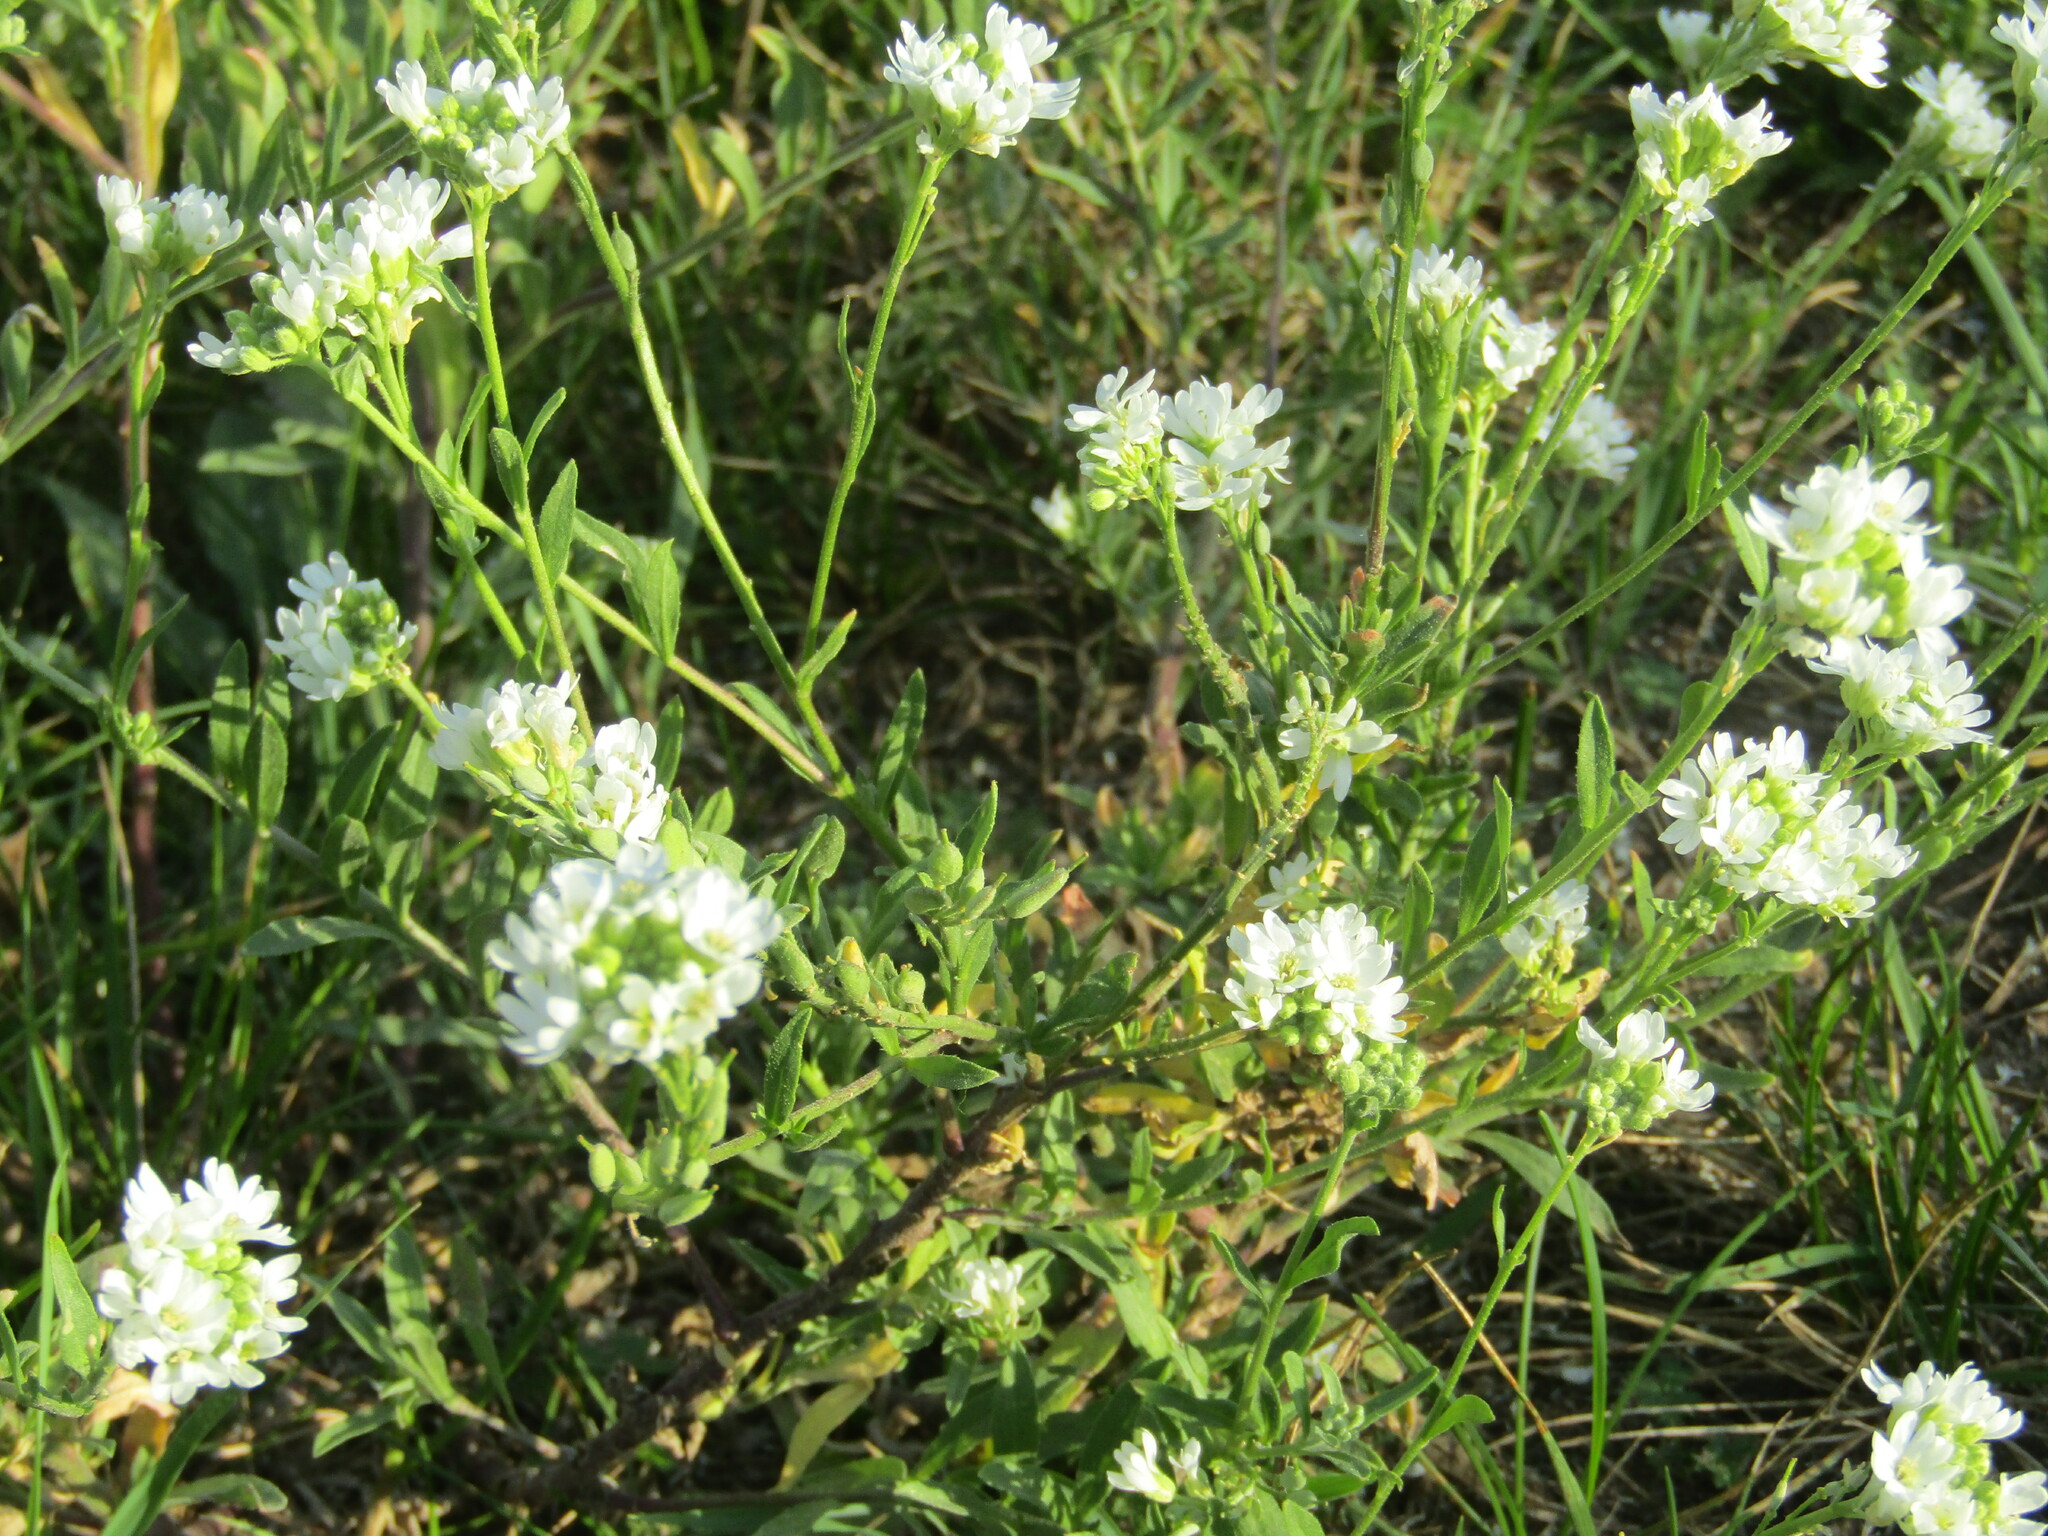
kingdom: Plantae
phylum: Tracheophyta
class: Magnoliopsida
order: Brassicales
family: Brassicaceae
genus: Berteroa
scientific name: Berteroa incana
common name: Hoary alison
